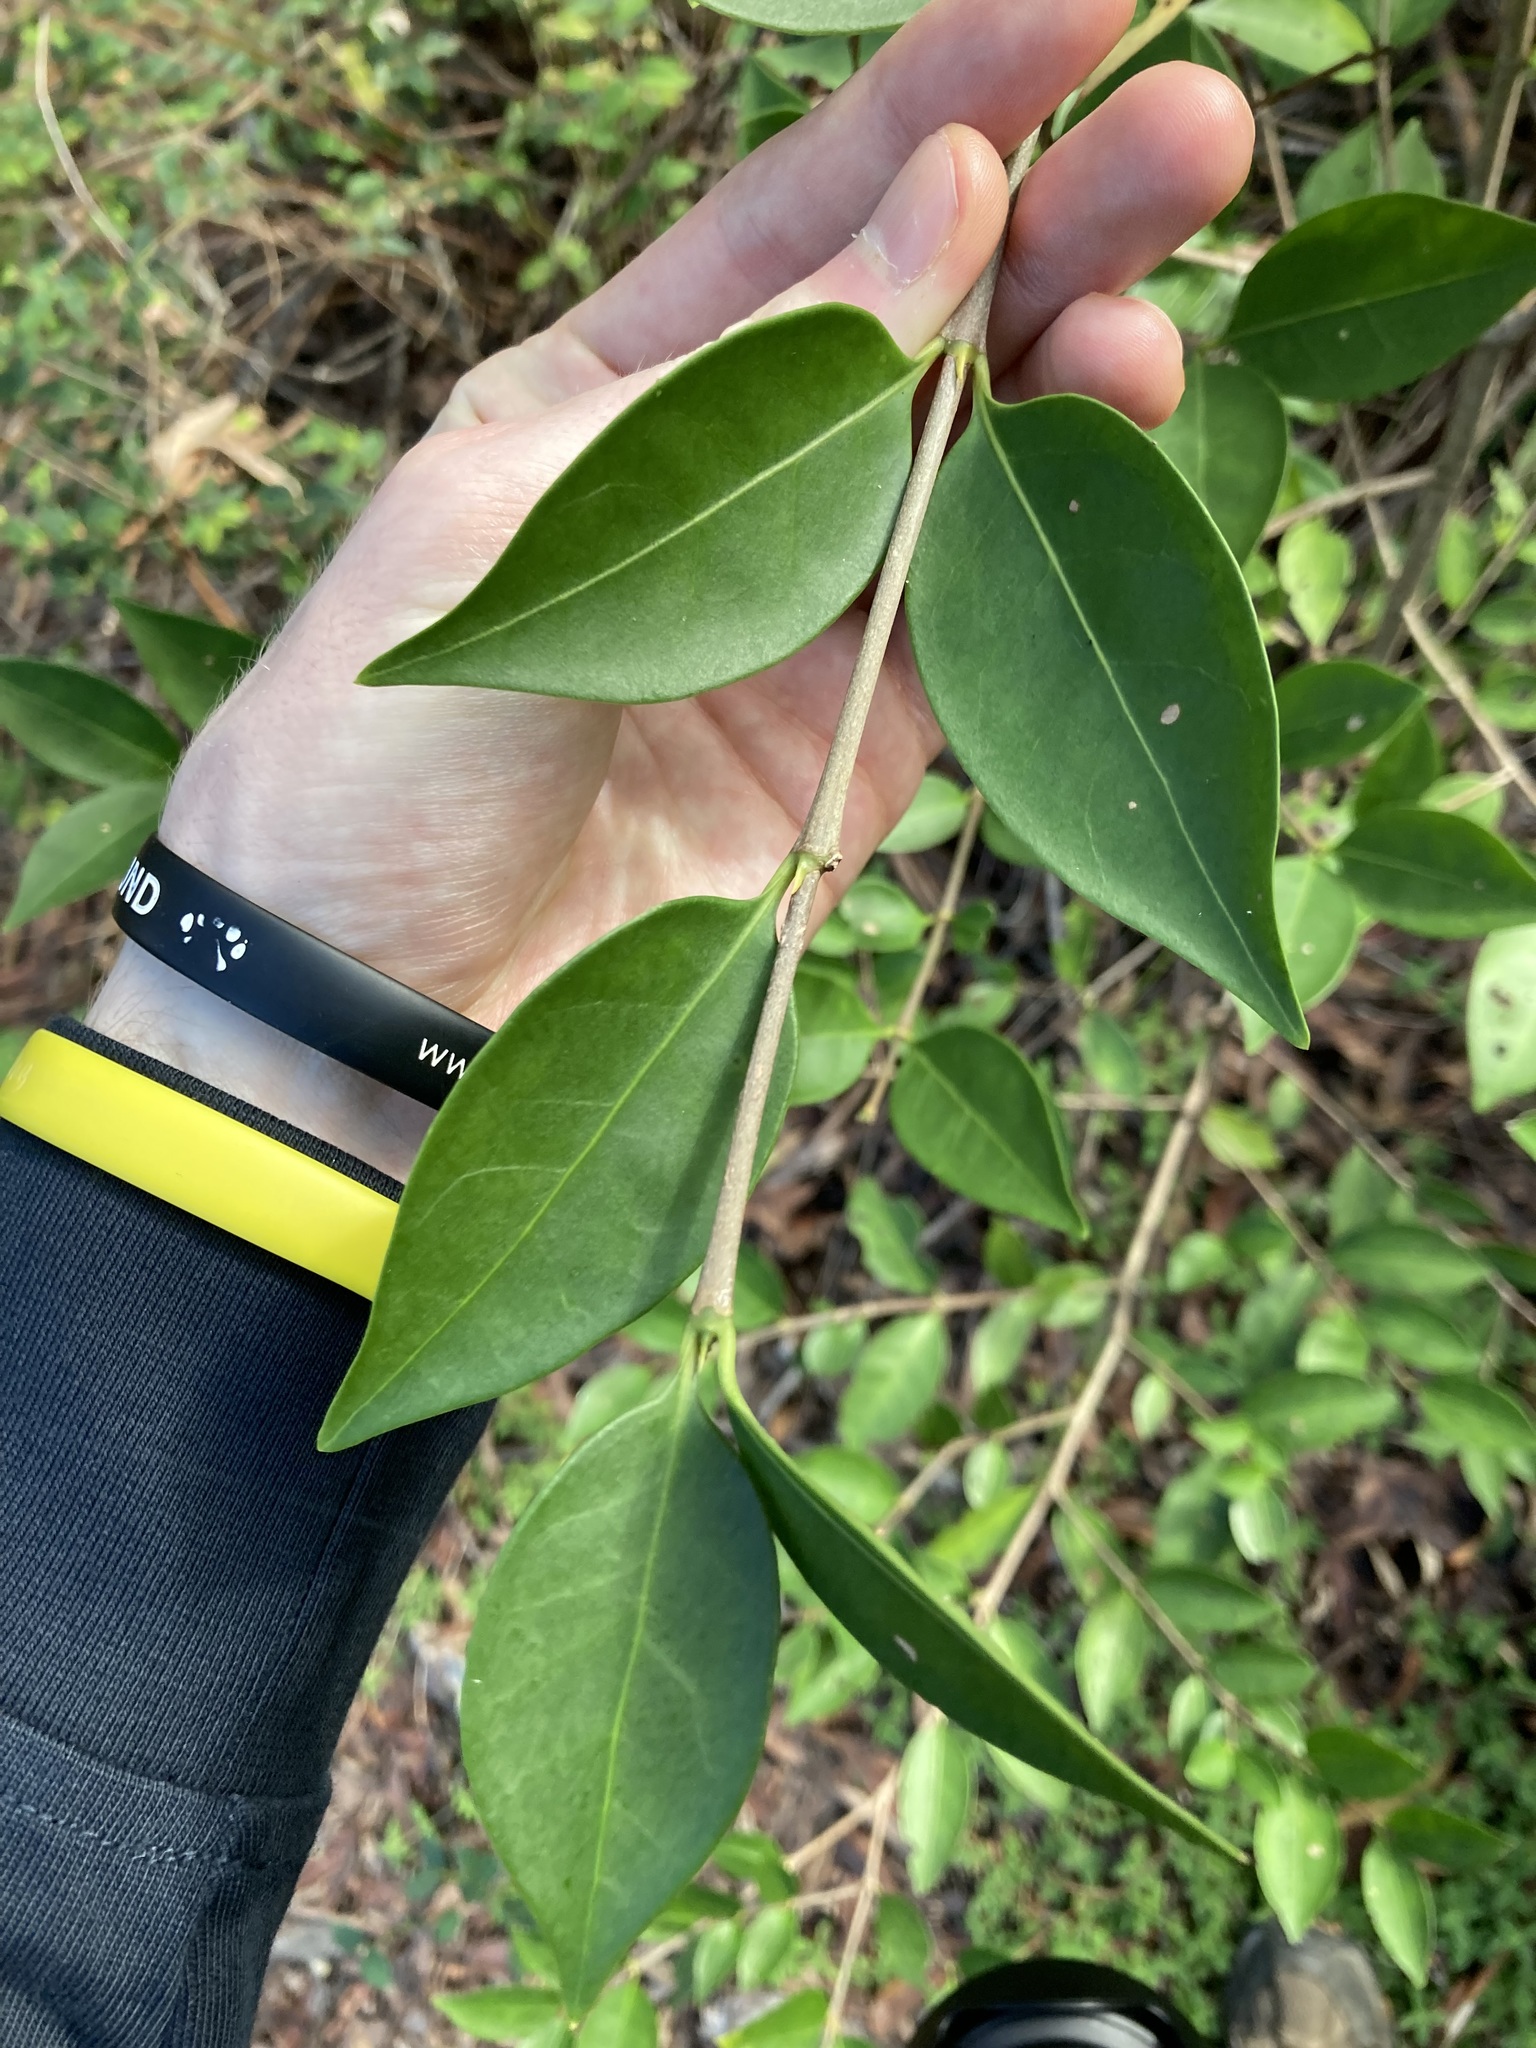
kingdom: Plantae
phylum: Tracheophyta
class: Magnoliopsida
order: Lamiales
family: Oleaceae
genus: Ligustrum
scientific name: Ligustrum lucidum
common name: Glossy privet
